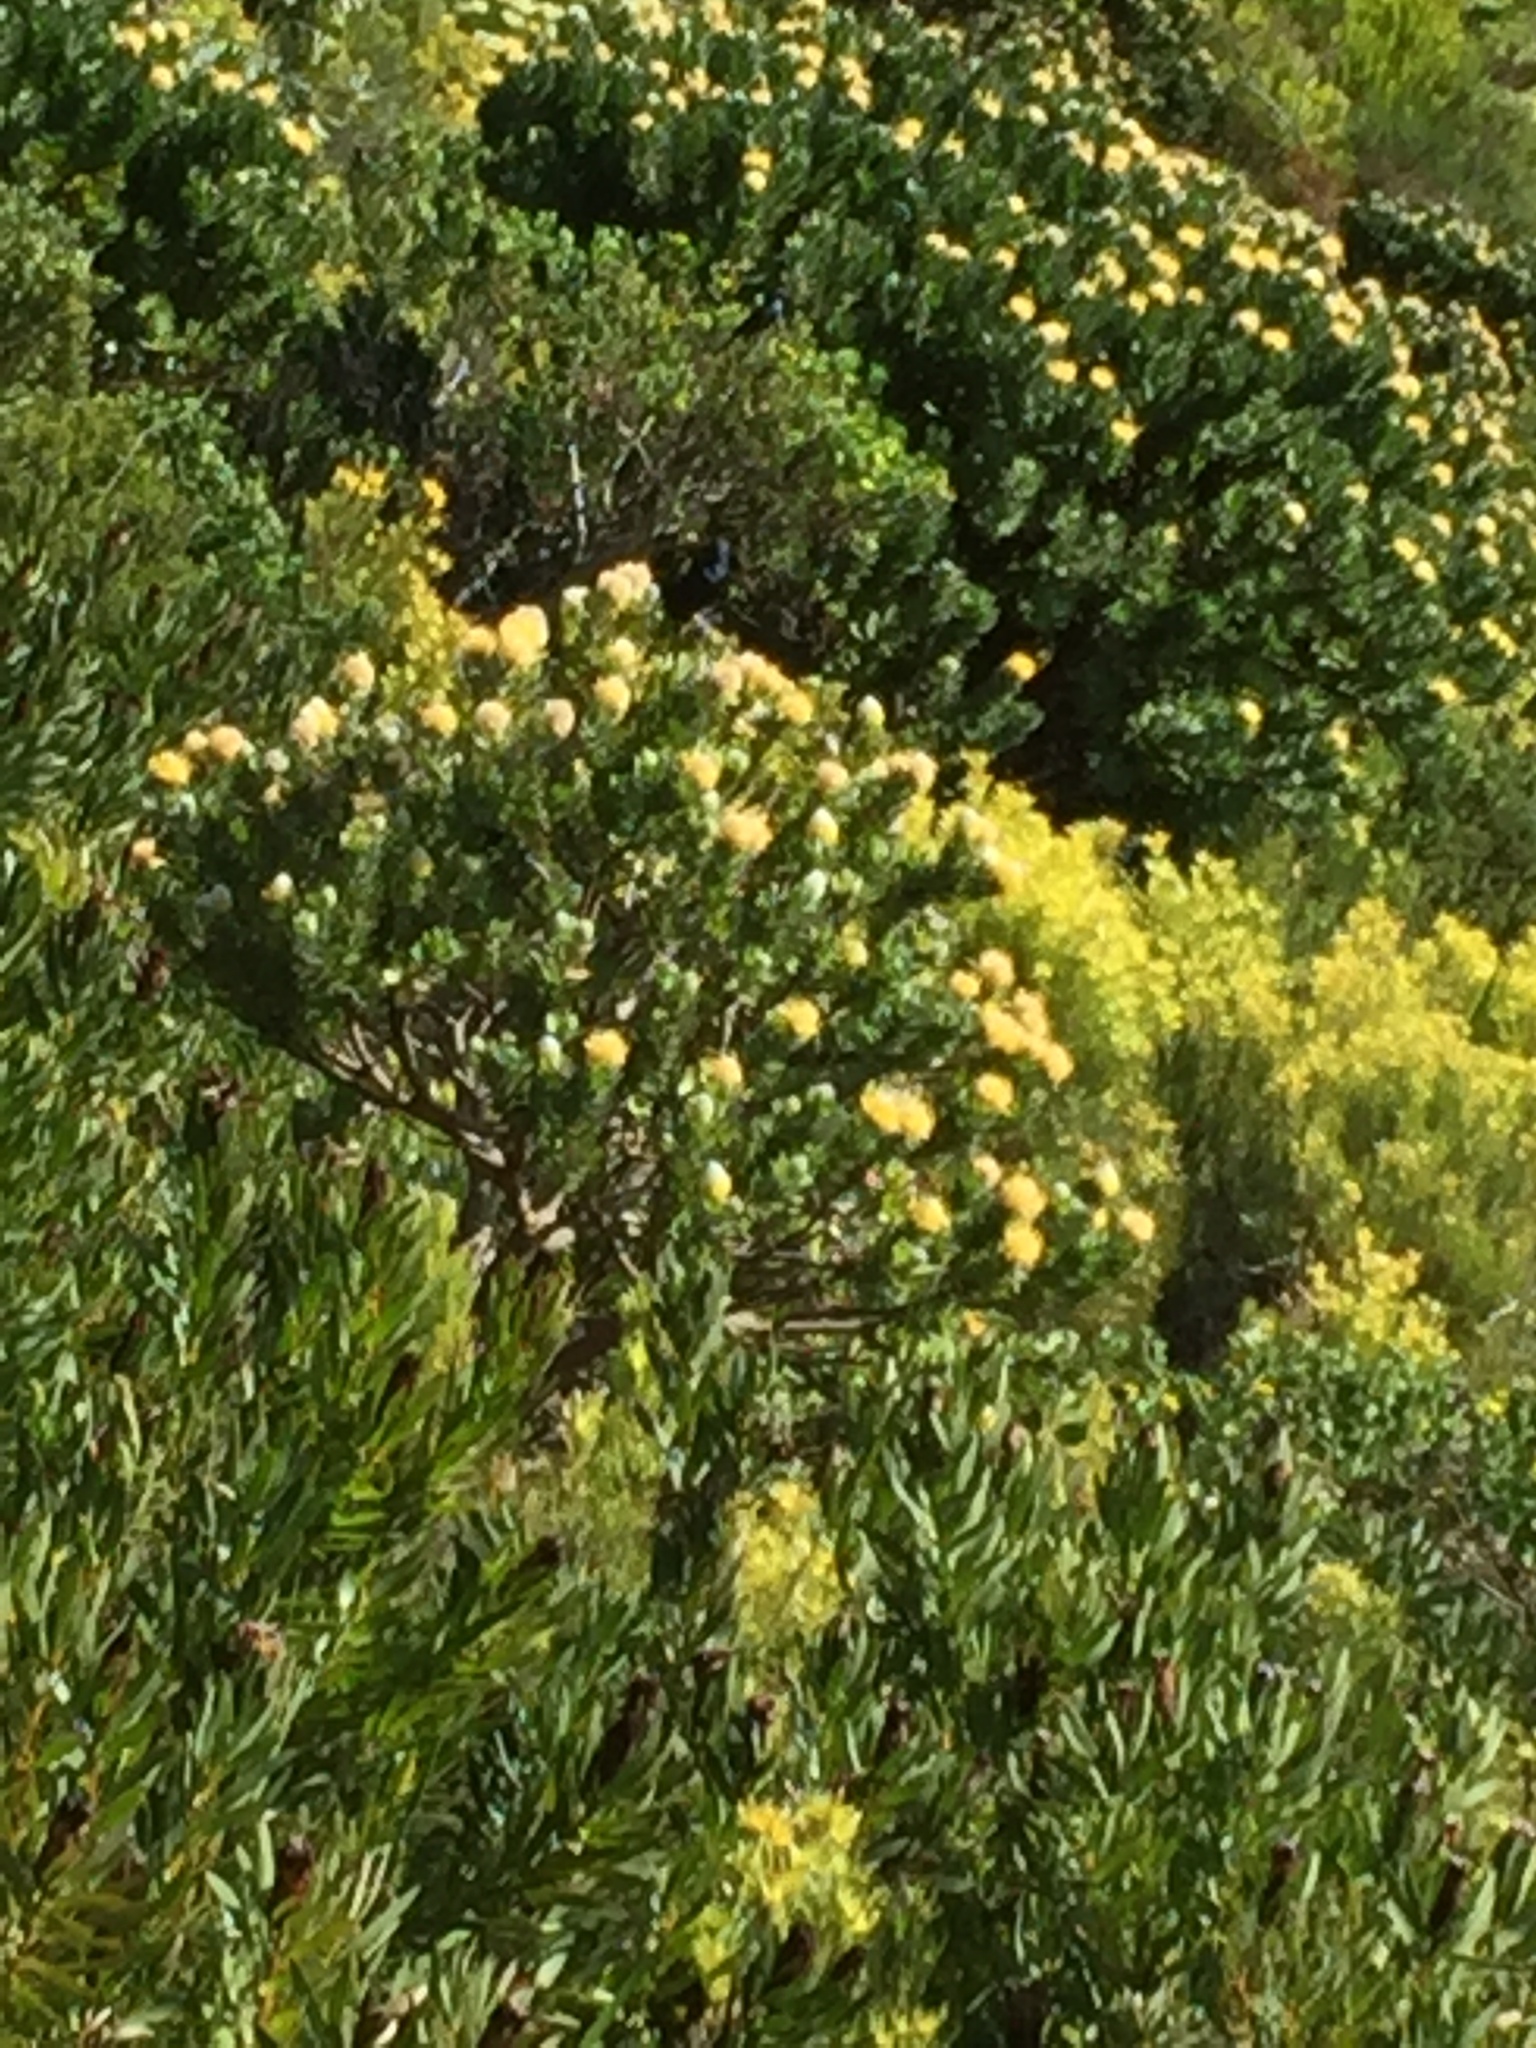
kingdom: Animalia
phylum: Chordata
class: Aves
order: Passeriformes
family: Sturnidae
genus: Onychognathus
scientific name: Onychognathus morio
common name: Red-winged starling
